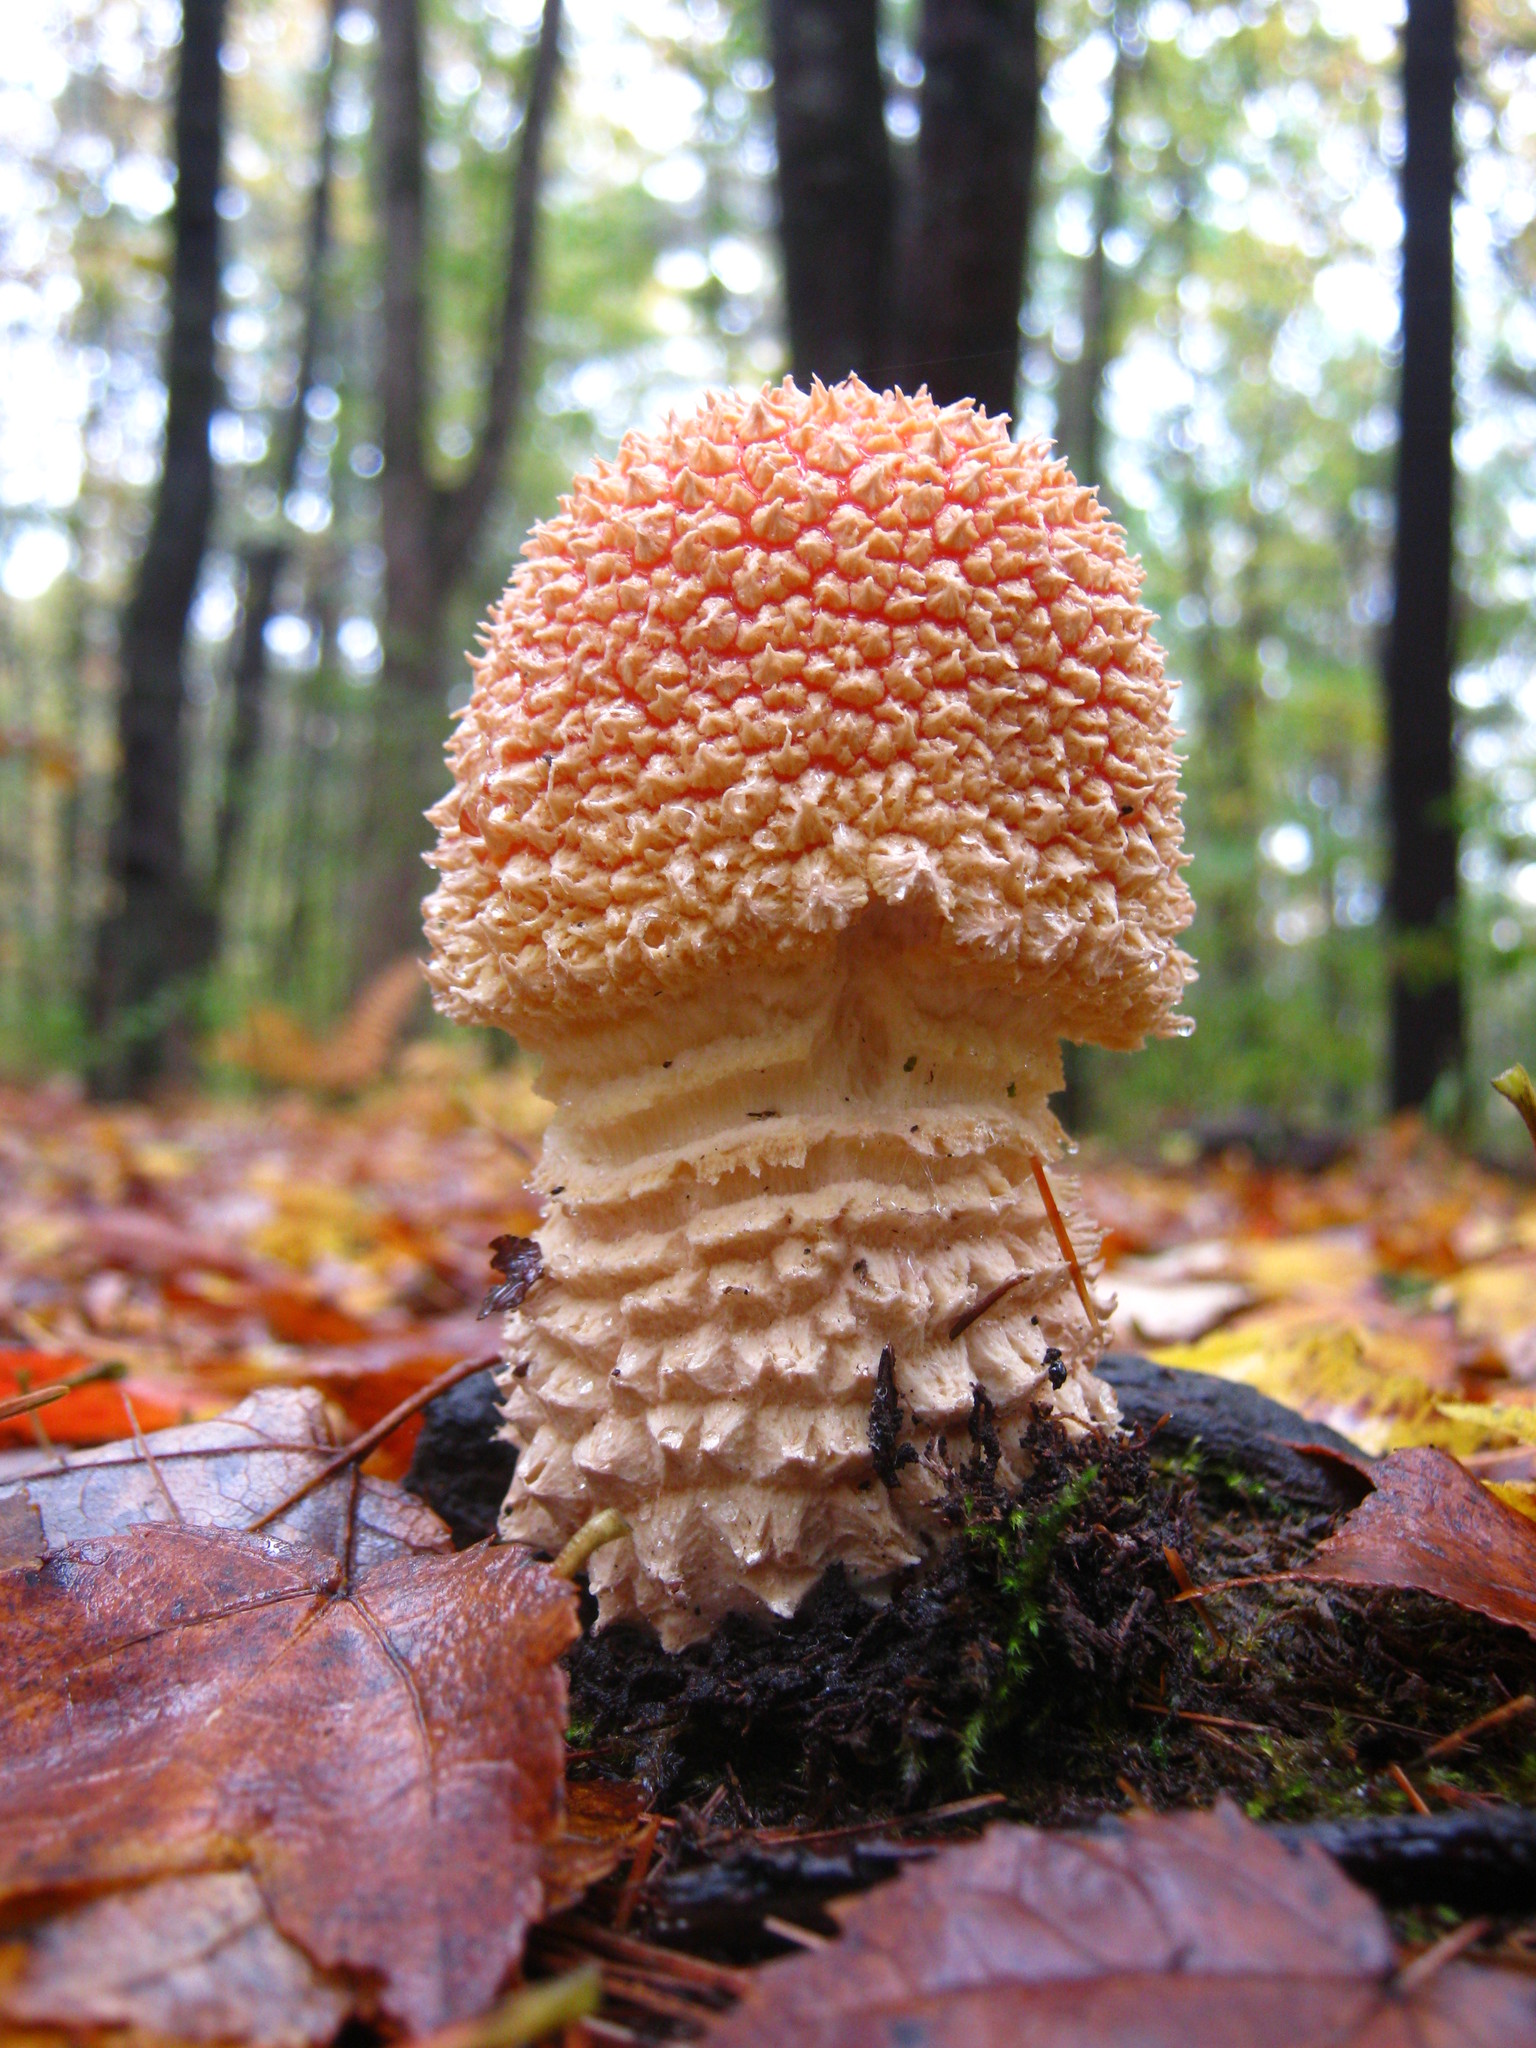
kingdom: Fungi
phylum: Basidiomycota
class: Agaricomycetes
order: Agaricales
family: Amanitaceae
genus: Amanita
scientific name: Amanita muscaria
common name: Fly agaric
